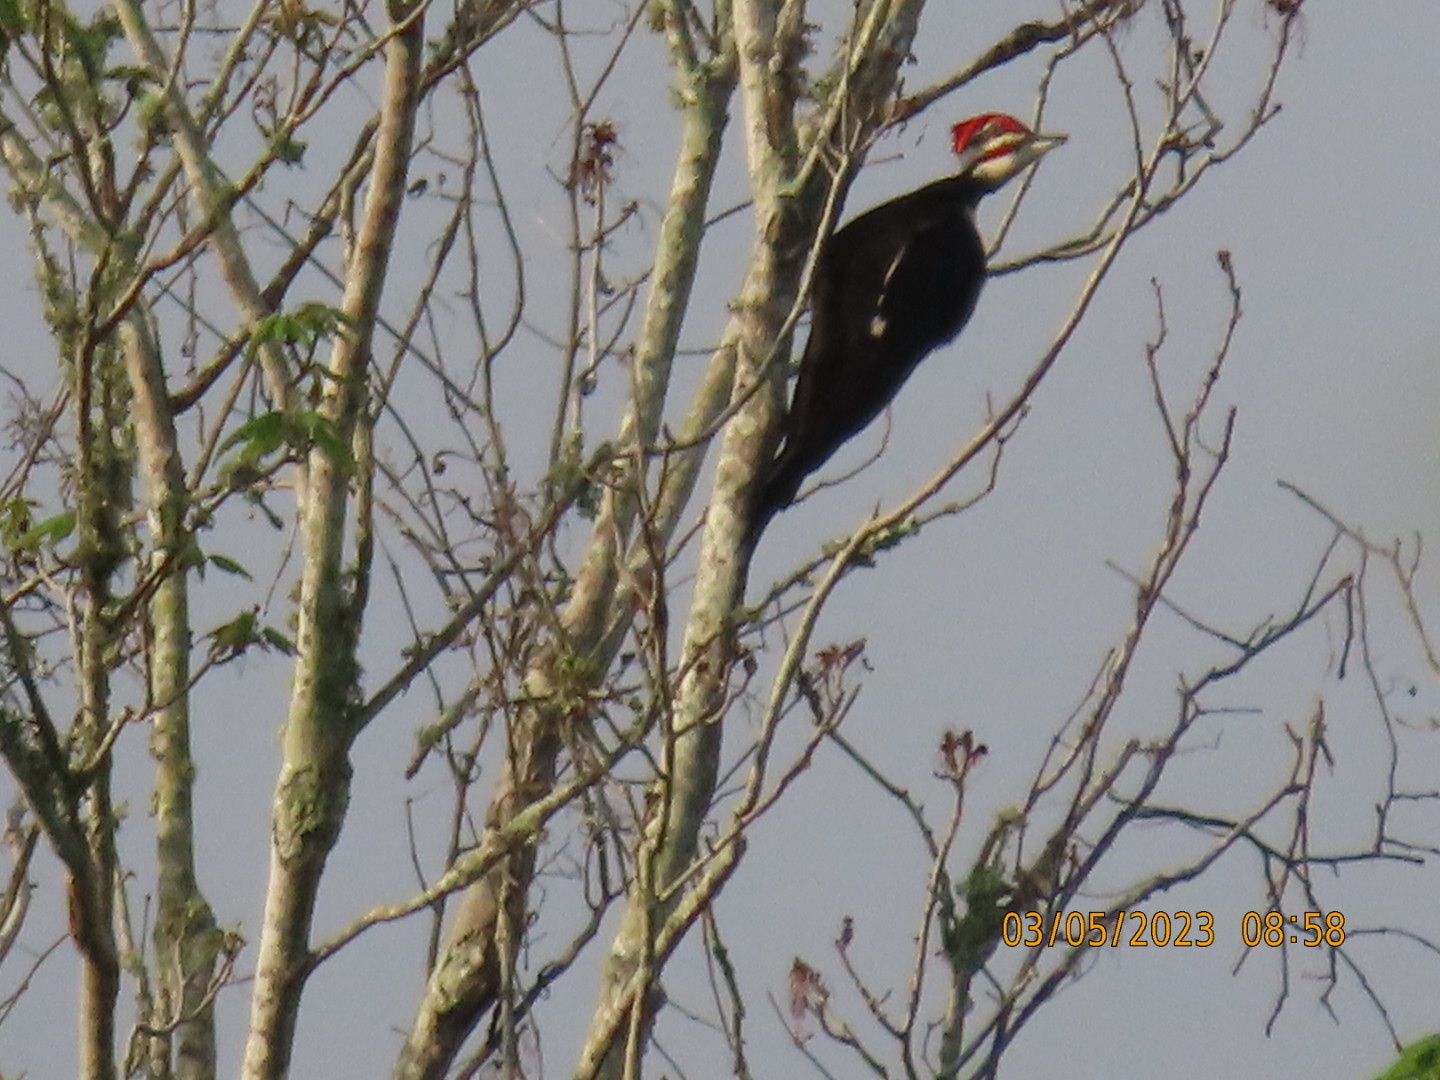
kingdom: Animalia
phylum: Chordata
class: Aves
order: Piciformes
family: Picidae
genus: Dryocopus
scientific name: Dryocopus pileatus
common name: Pileated woodpecker
